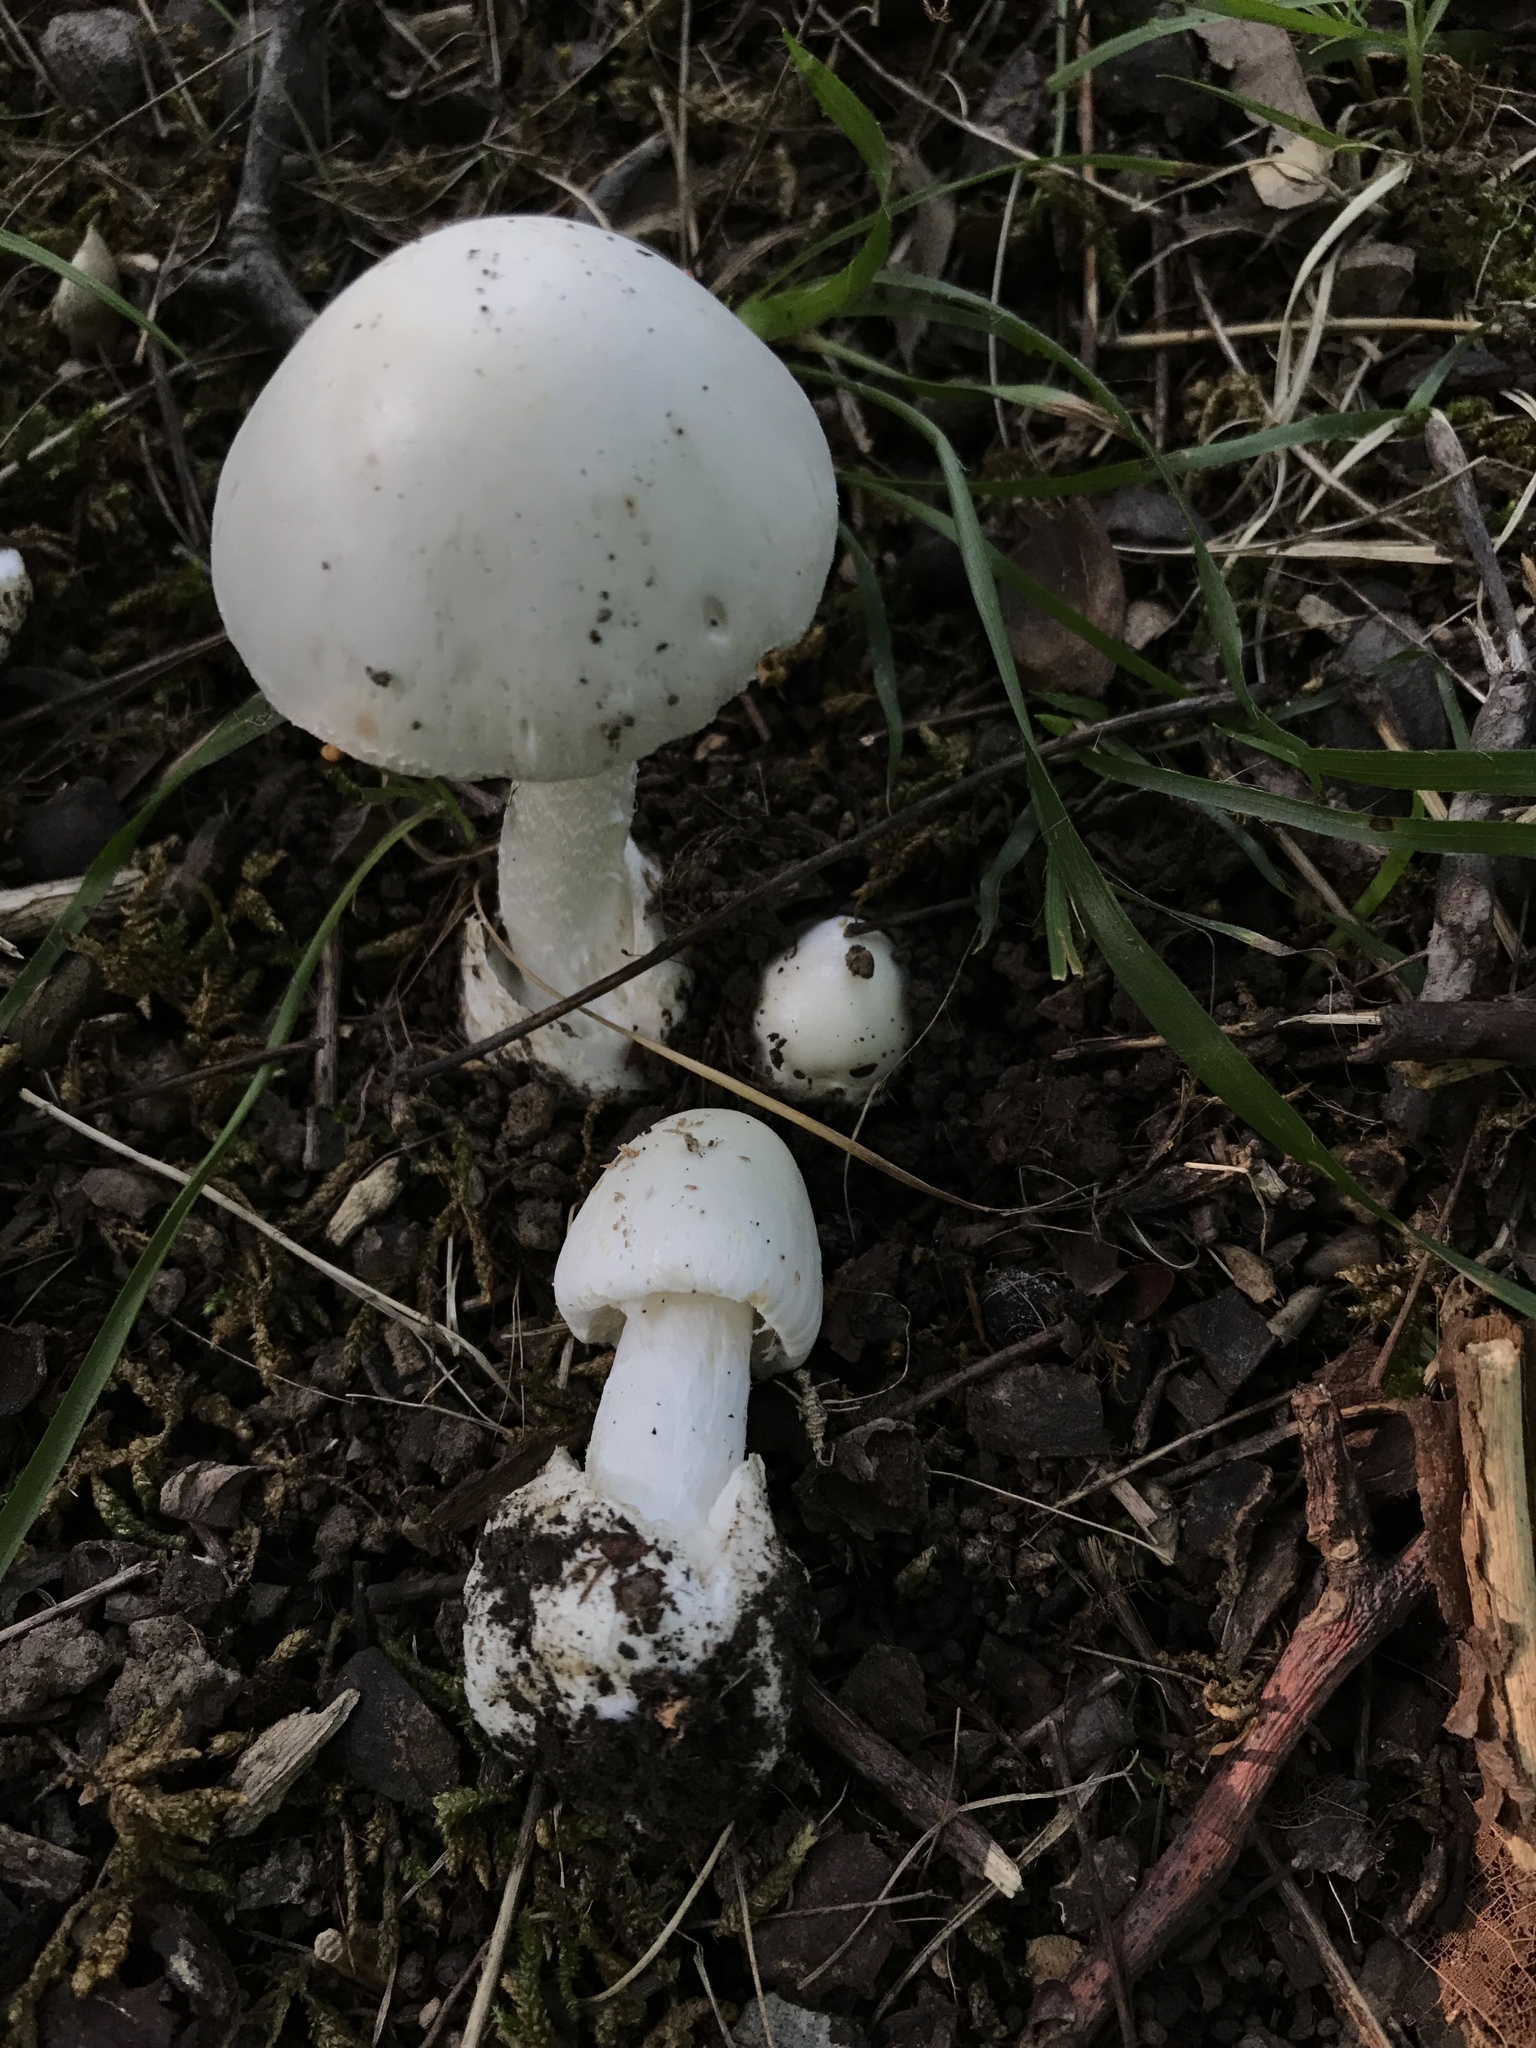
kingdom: Fungi
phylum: Basidiomycota
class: Agaricomycetes
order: Agaricales
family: Amanitaceae
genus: Amanita
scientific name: Amanita bisporigera
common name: Eastern north american destroying angel
